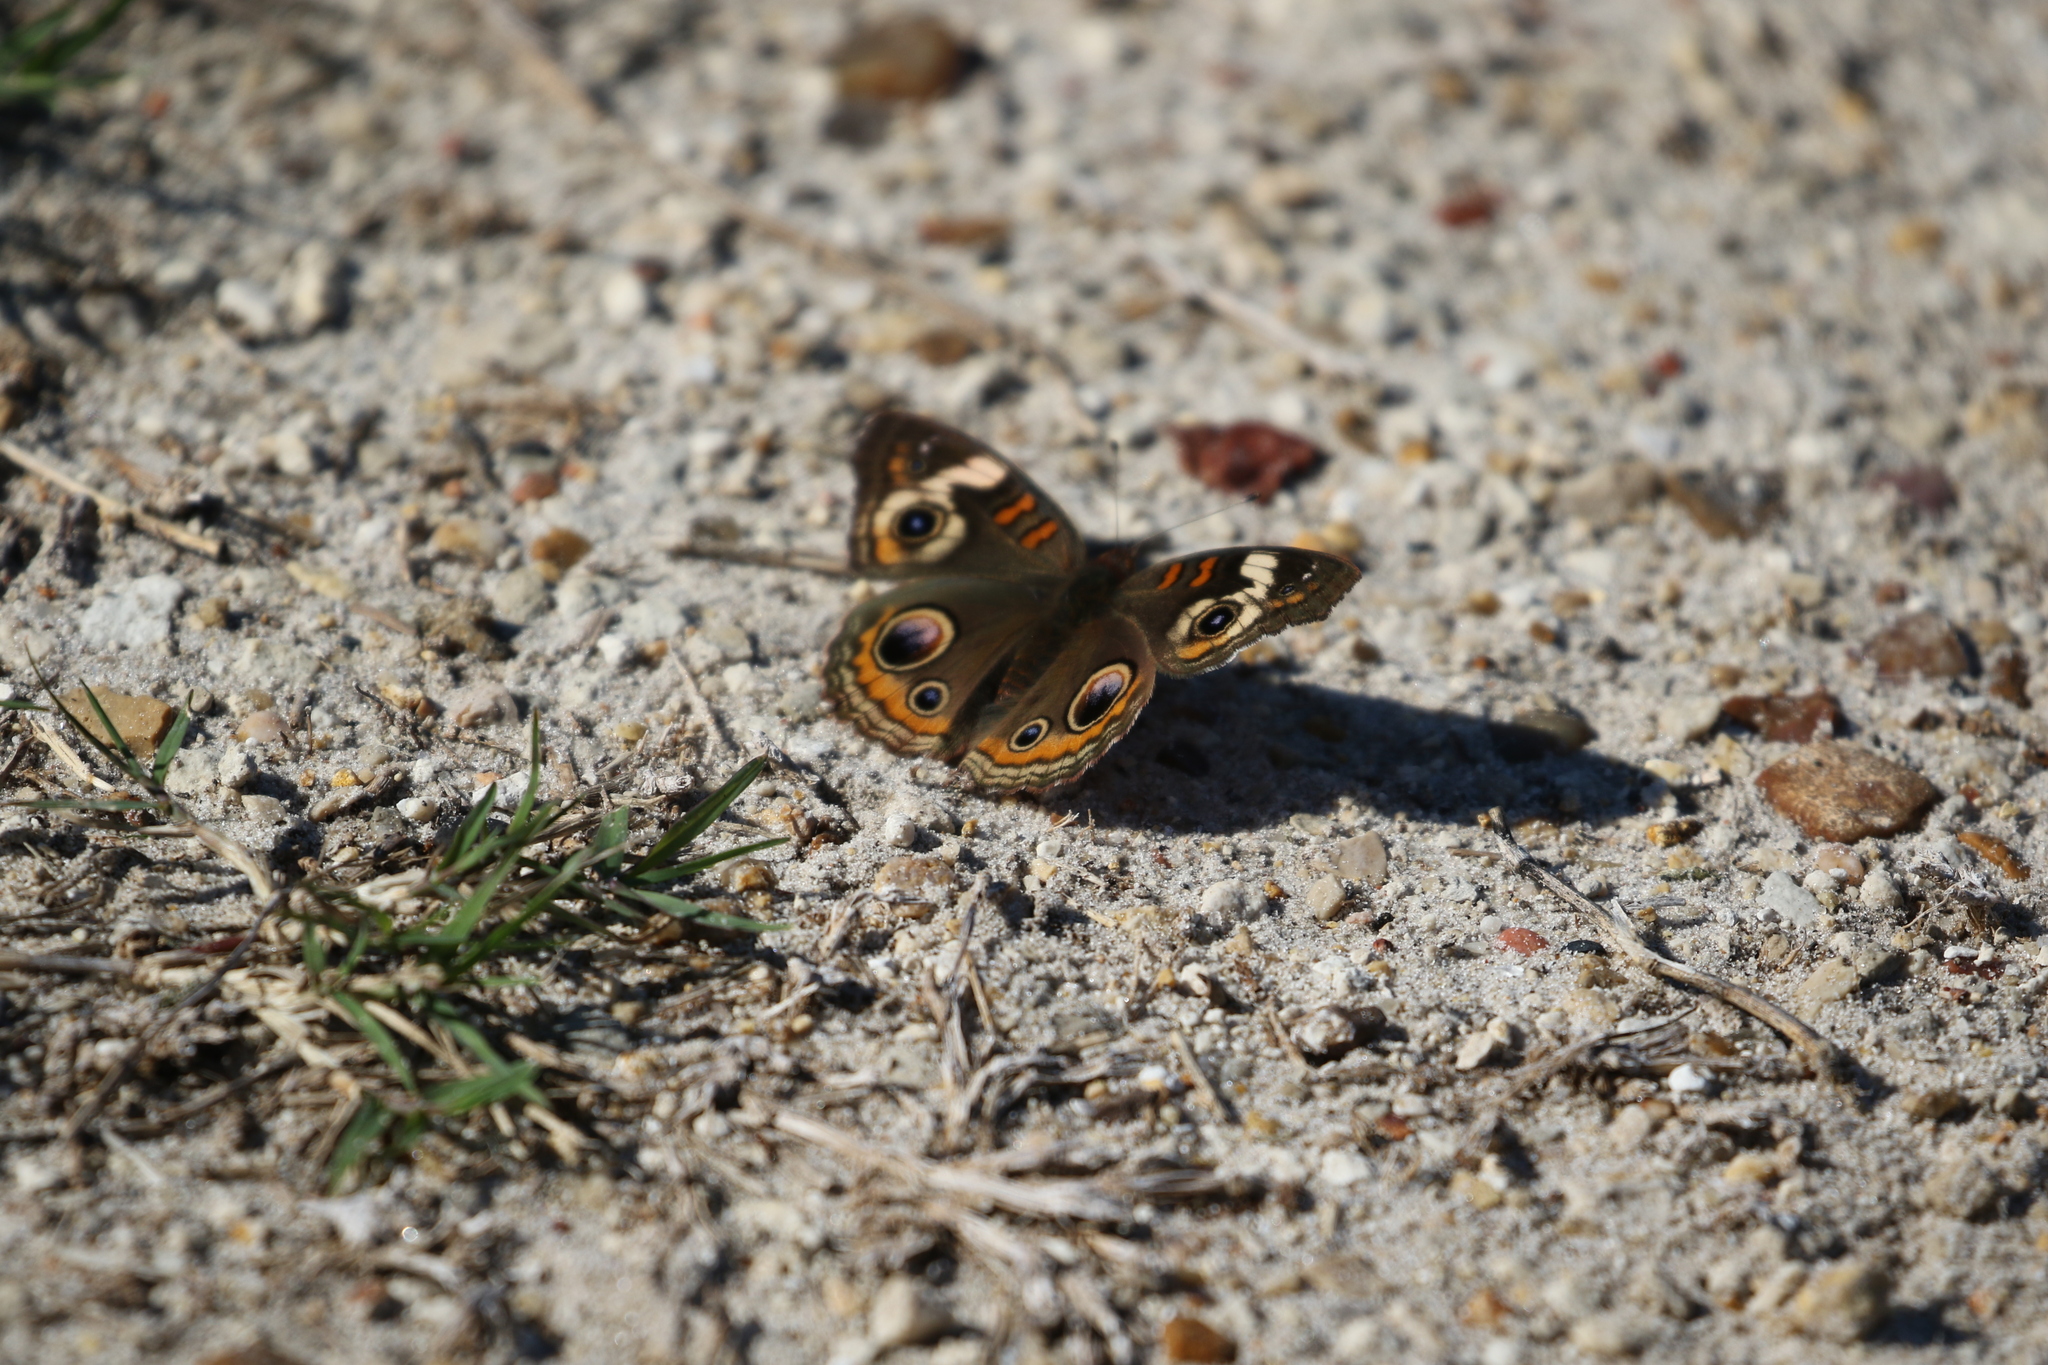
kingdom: Animalia
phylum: Arthropoda
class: Insecta
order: Lepidoptera
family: Nymphalidae
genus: Junonia
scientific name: Junonia coenia
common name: Common buckeye
